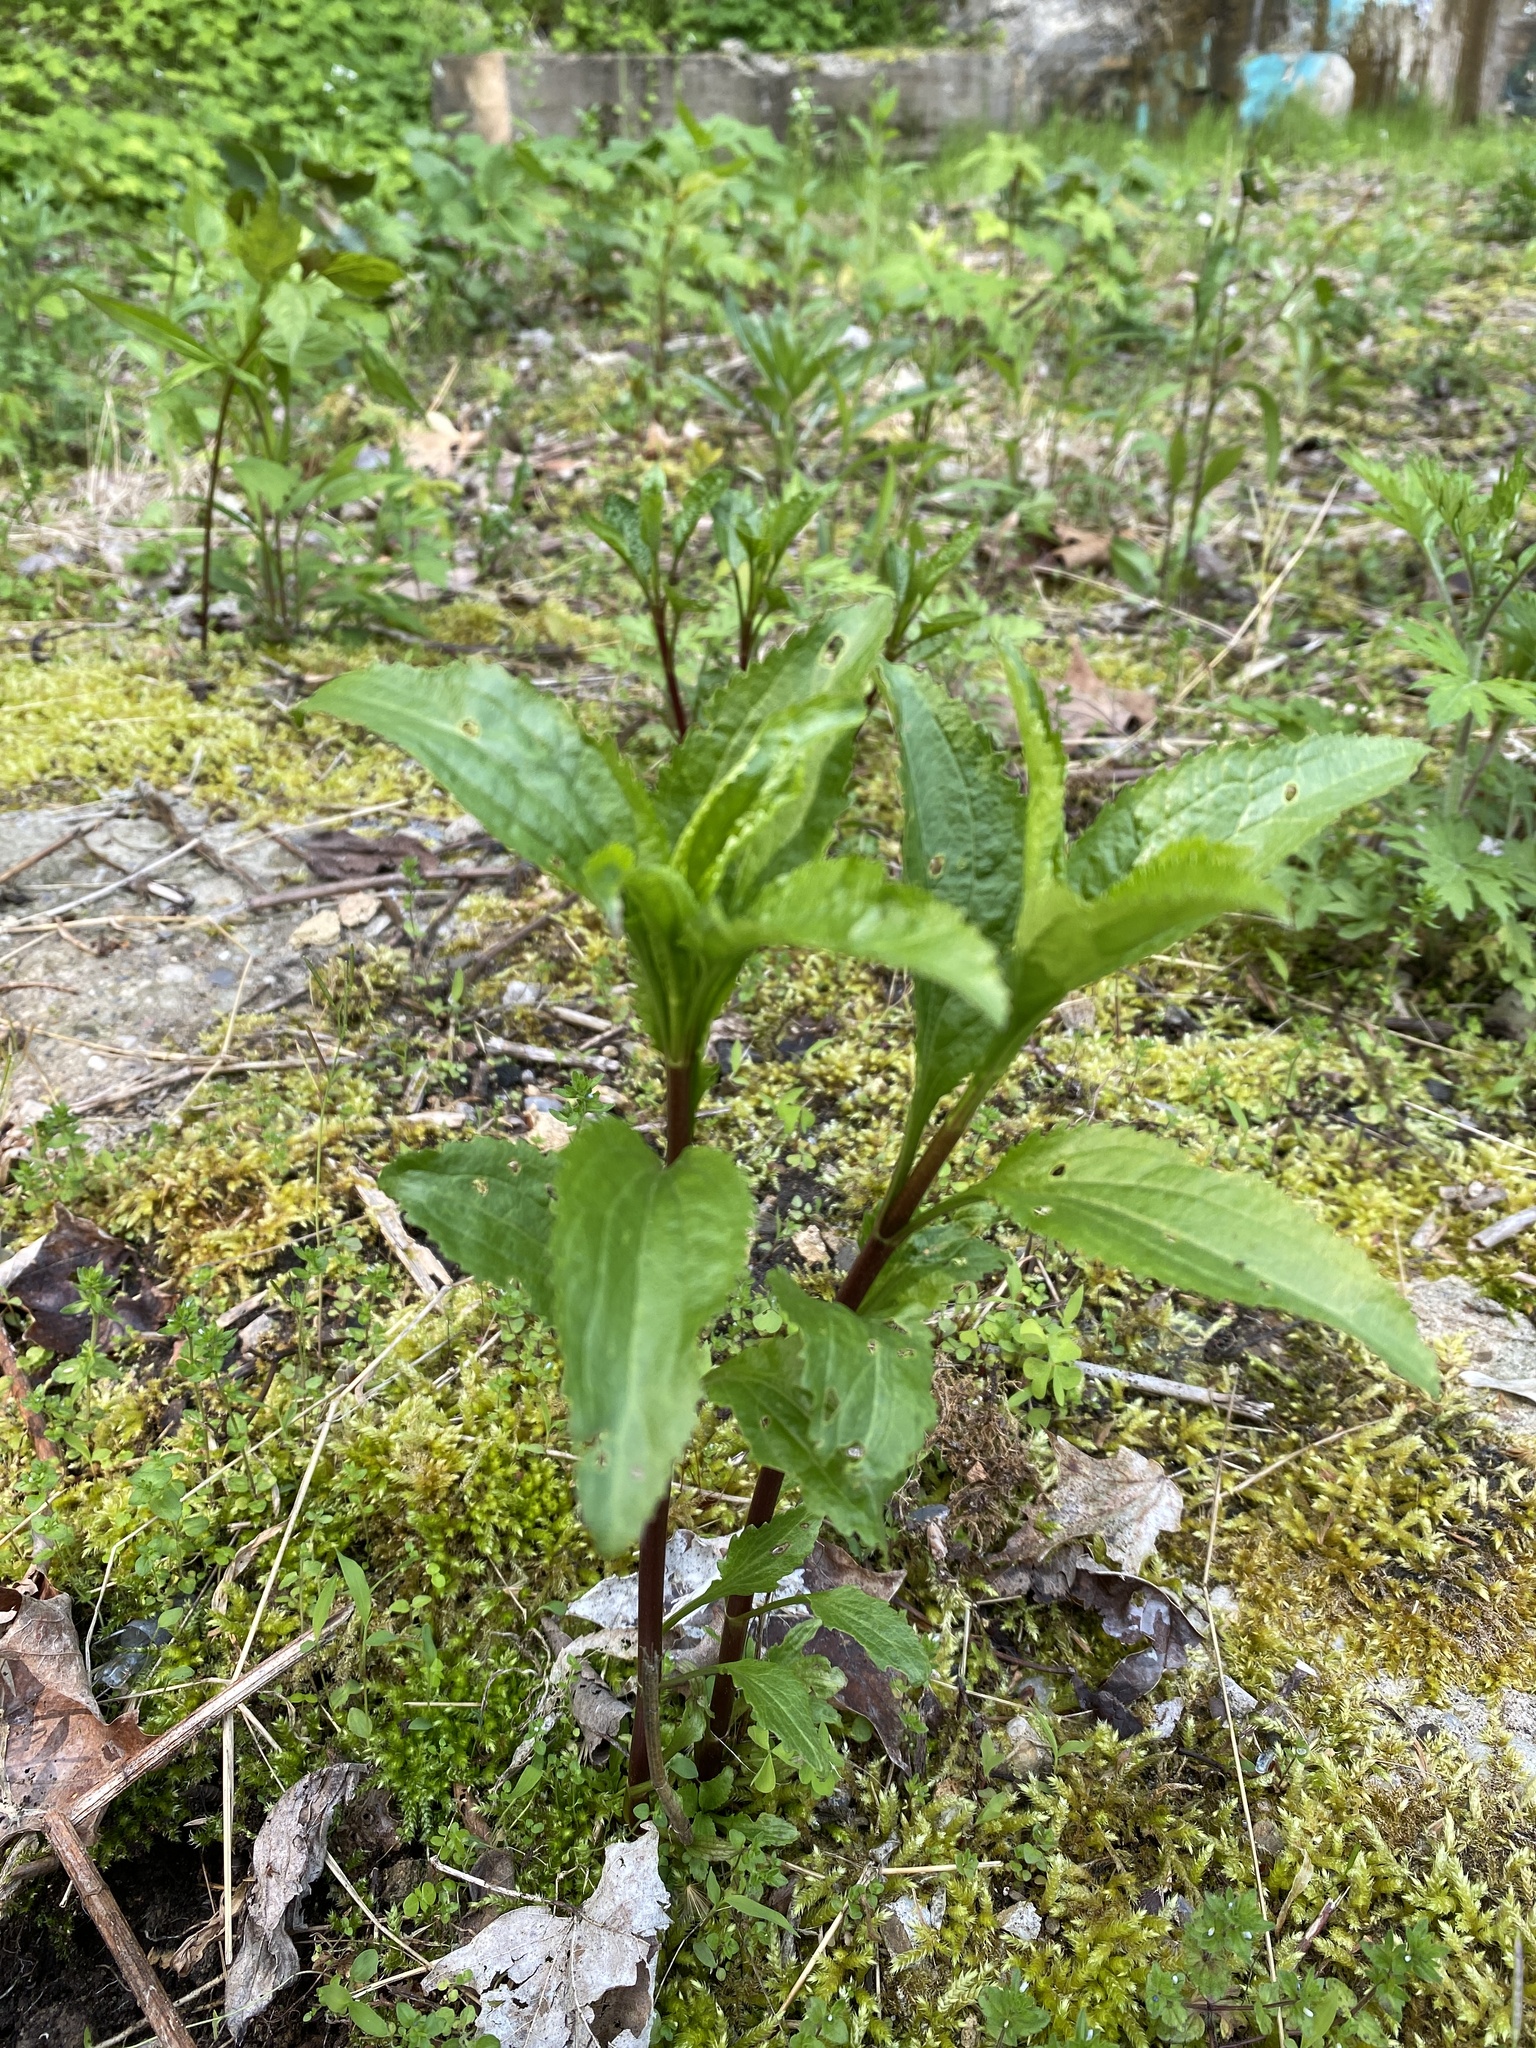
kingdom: Plantae
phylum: Tracheophyta
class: Magnoliopsida
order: Asterales
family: Asteraceae
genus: Eupatorium
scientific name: Eupatorium serotinum
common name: Late boneset
